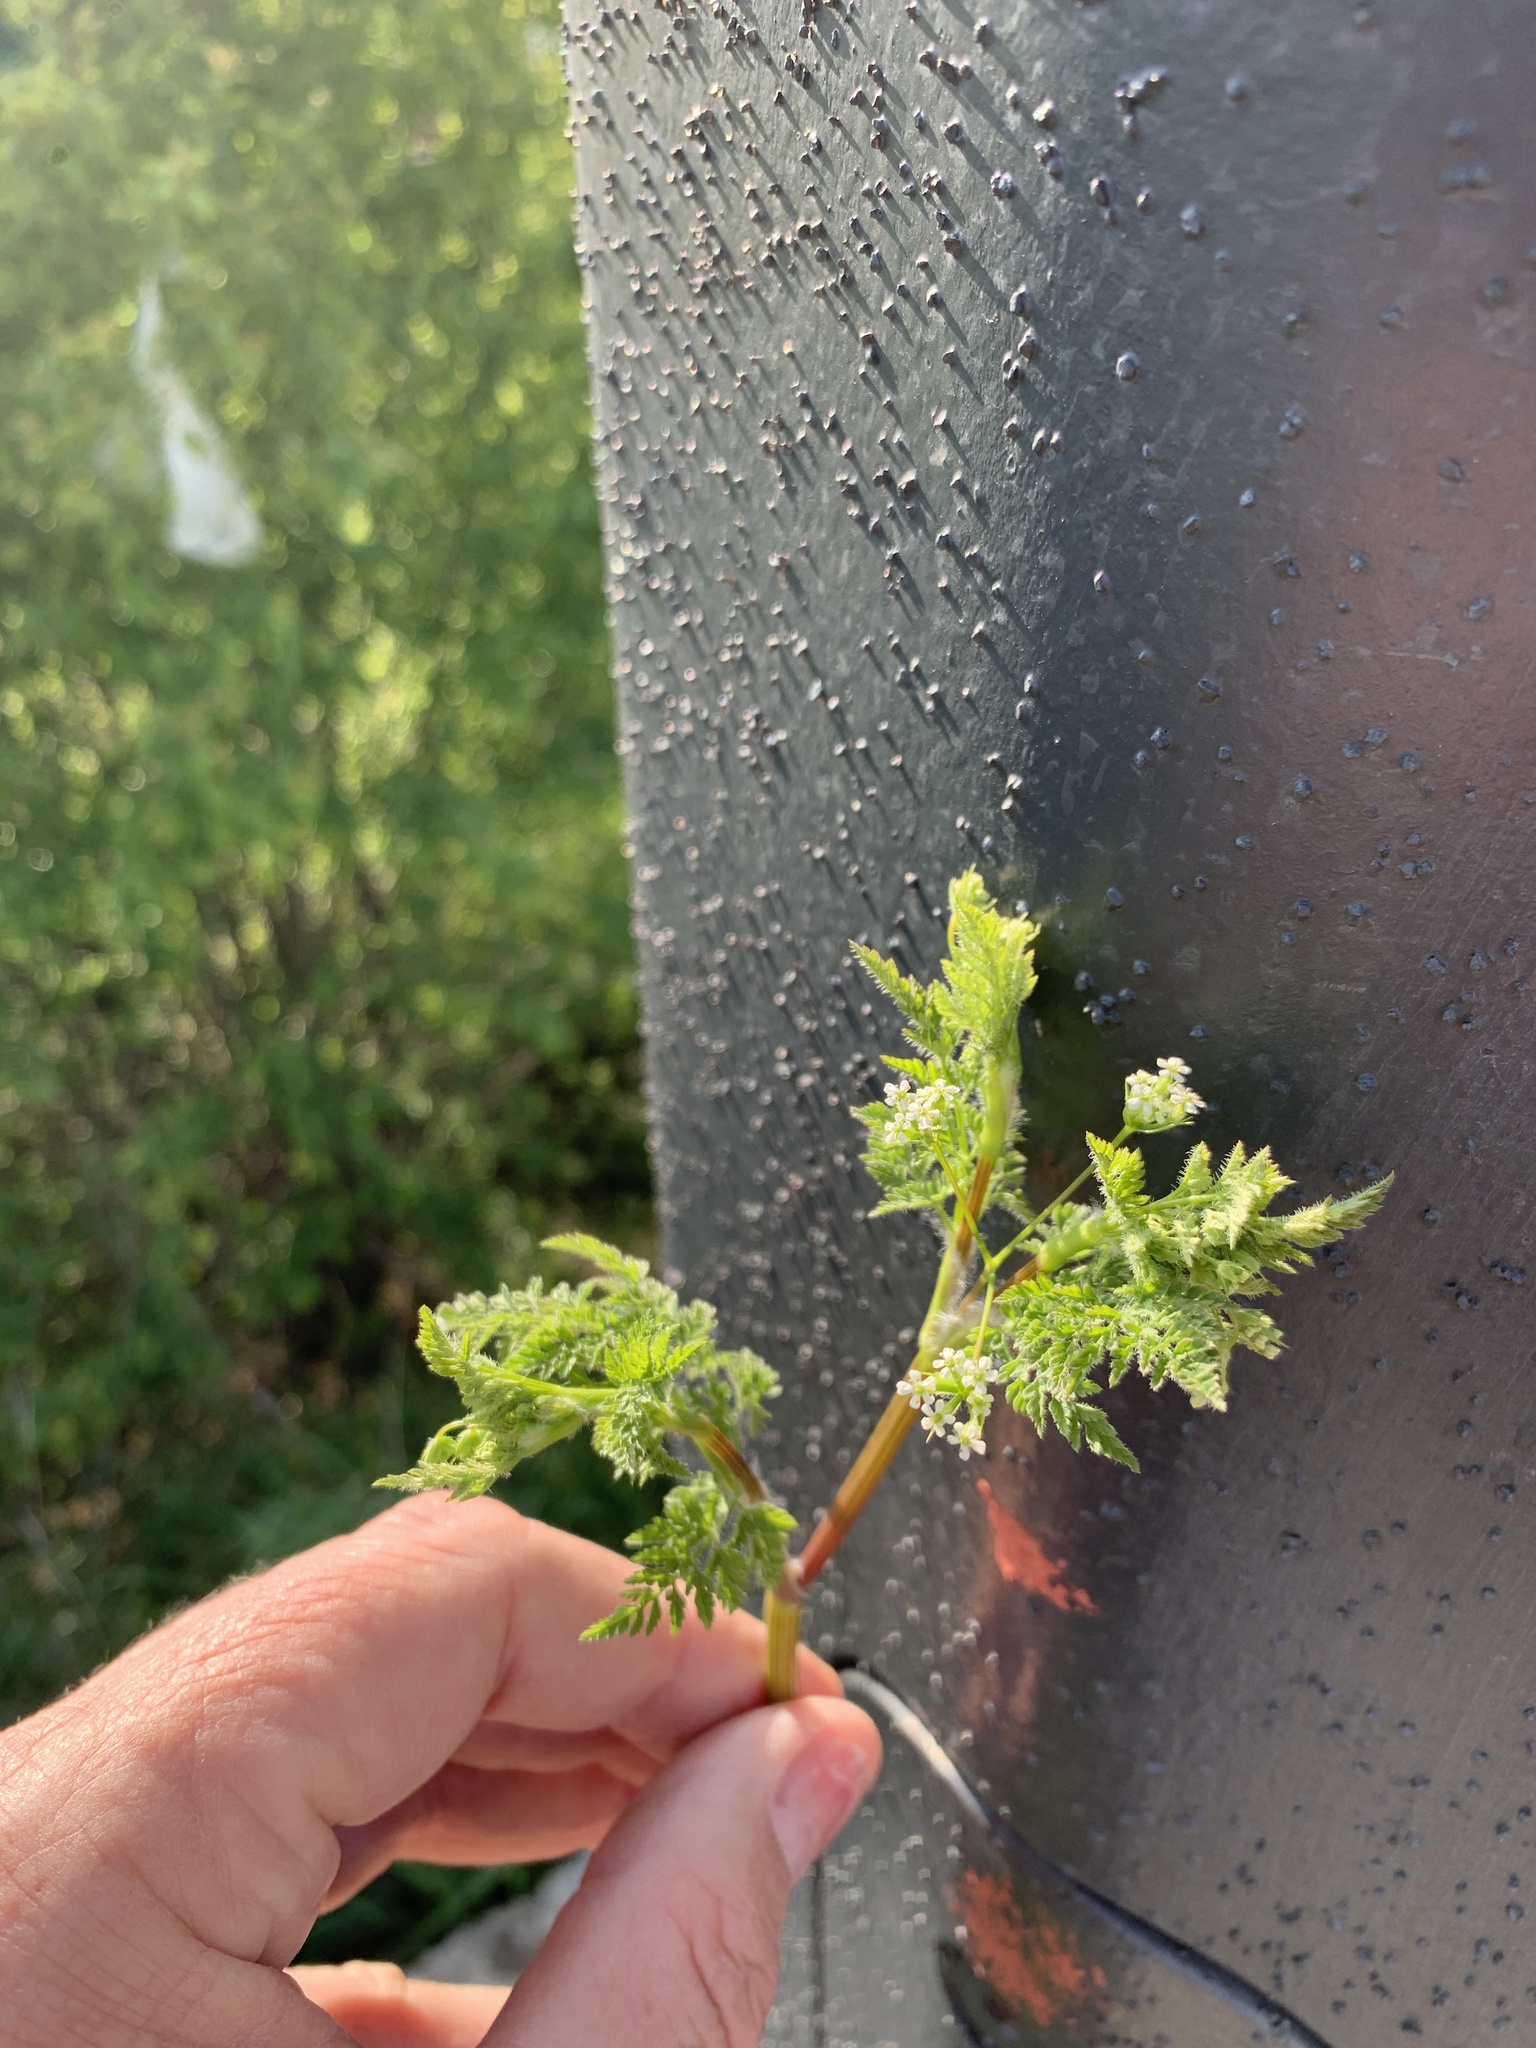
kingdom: Plantae
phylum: Tracheophyta
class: Magnoliopsida
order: Apiales
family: Apiaceae
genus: Anthriscus
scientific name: Anthriscus caucalis
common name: Bur chervil
